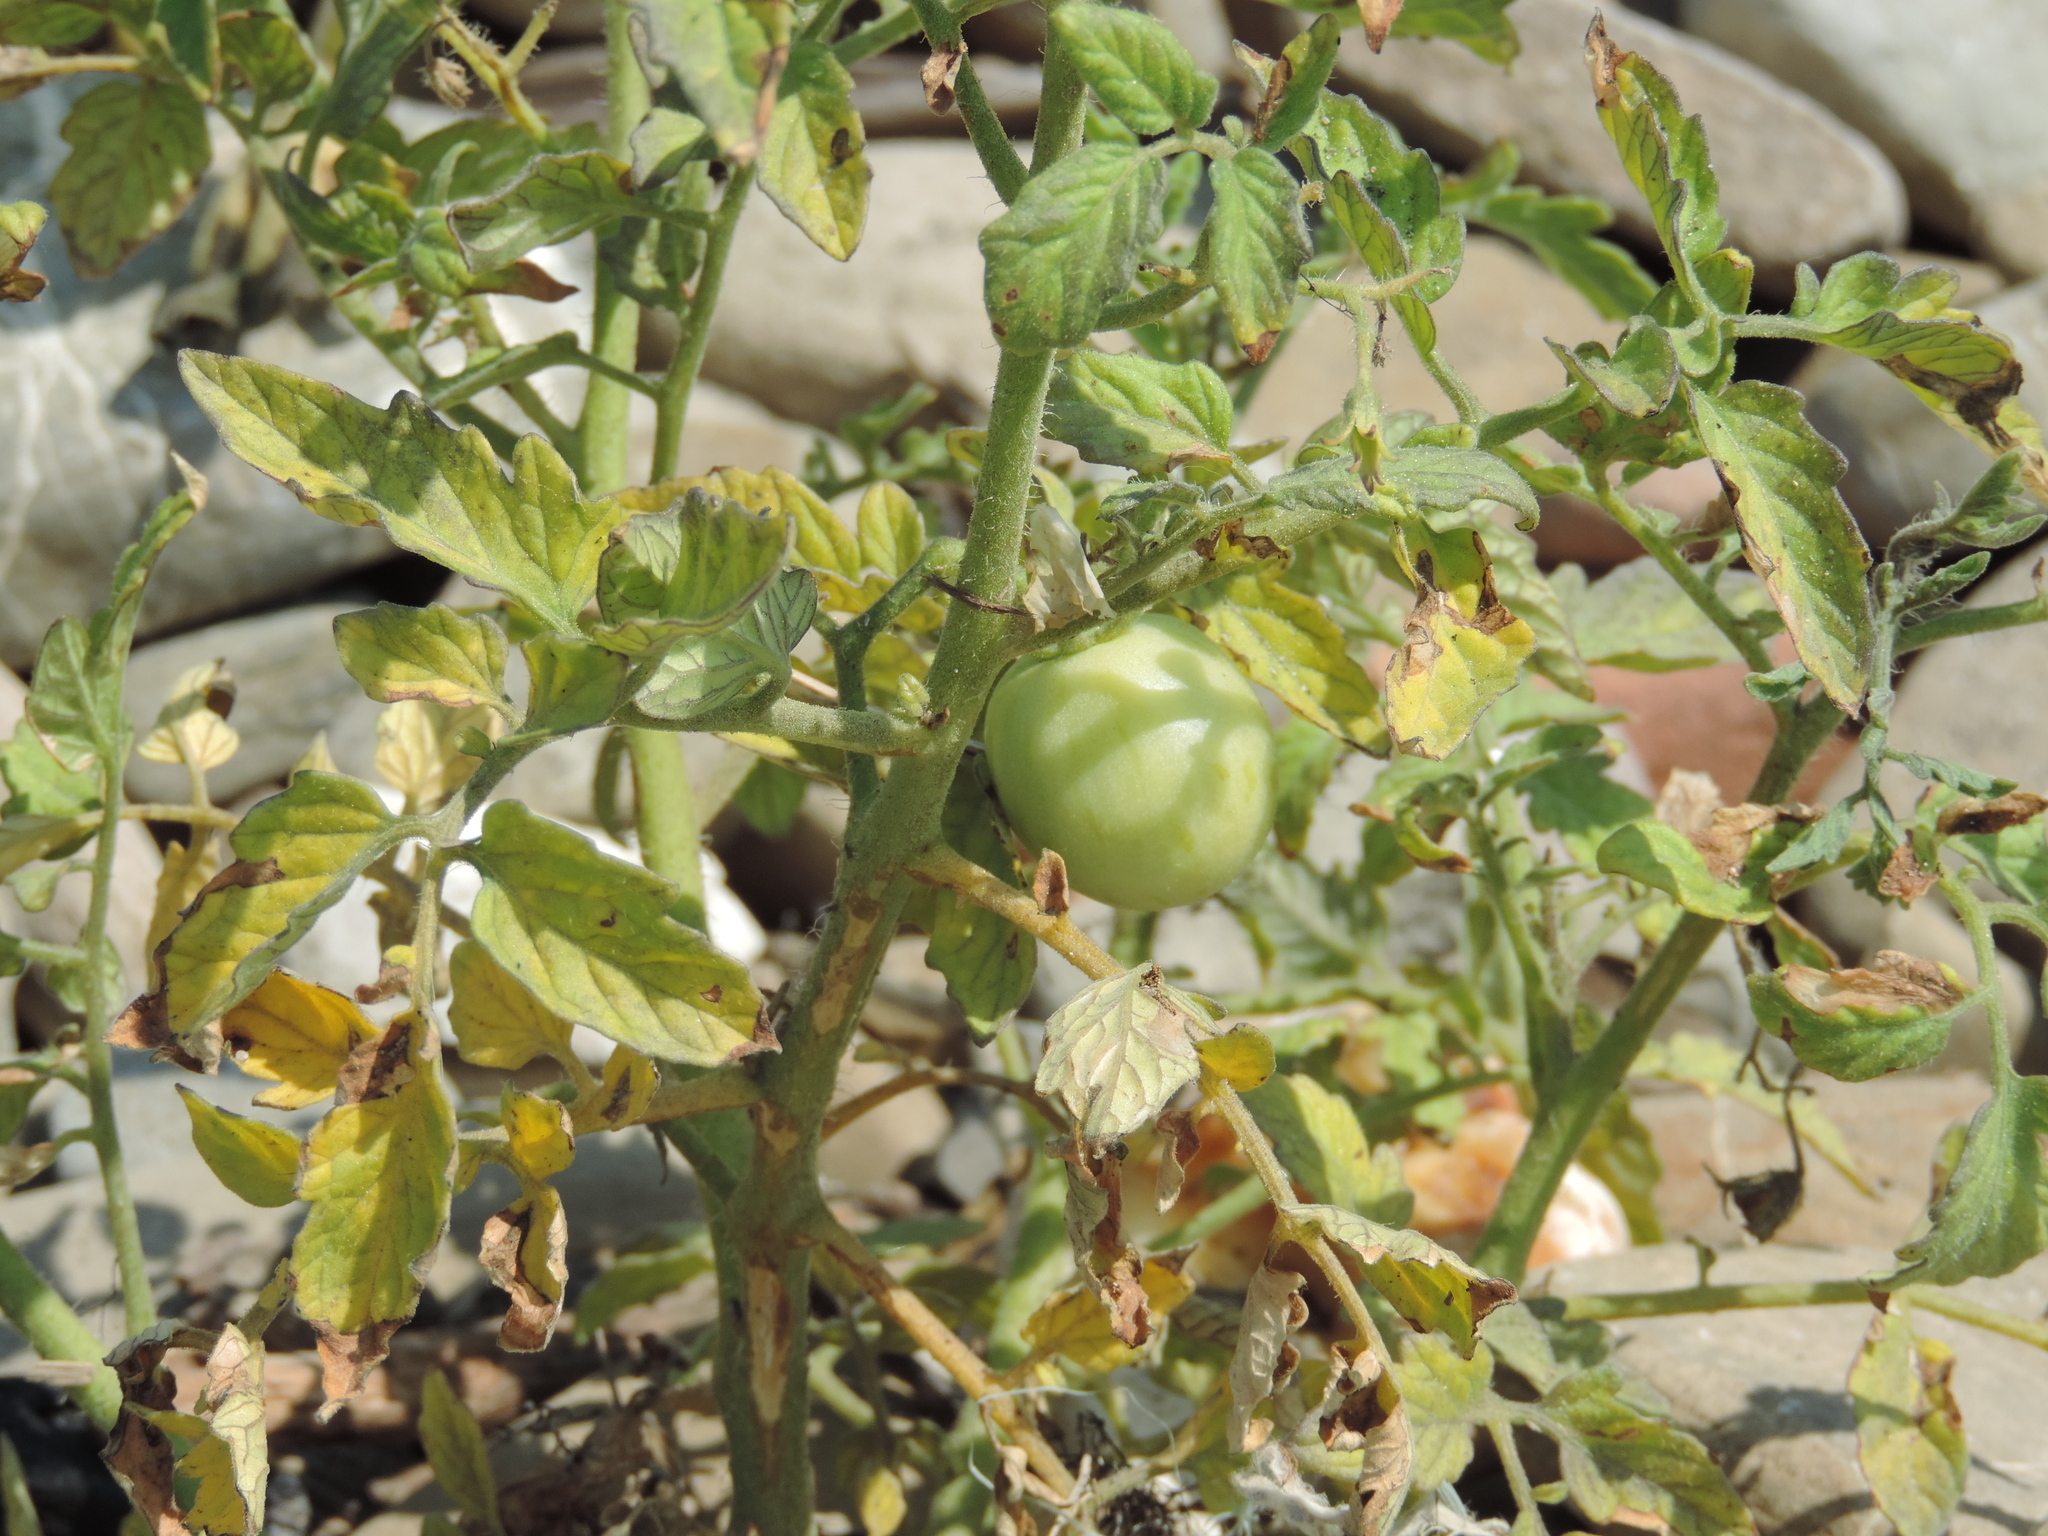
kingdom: Plantae
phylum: Tracheophyta
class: Magnoliopsida
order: Solanales
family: Solanaceae
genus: Solanum
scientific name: Solanum lycopersicum
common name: Garden tomato
